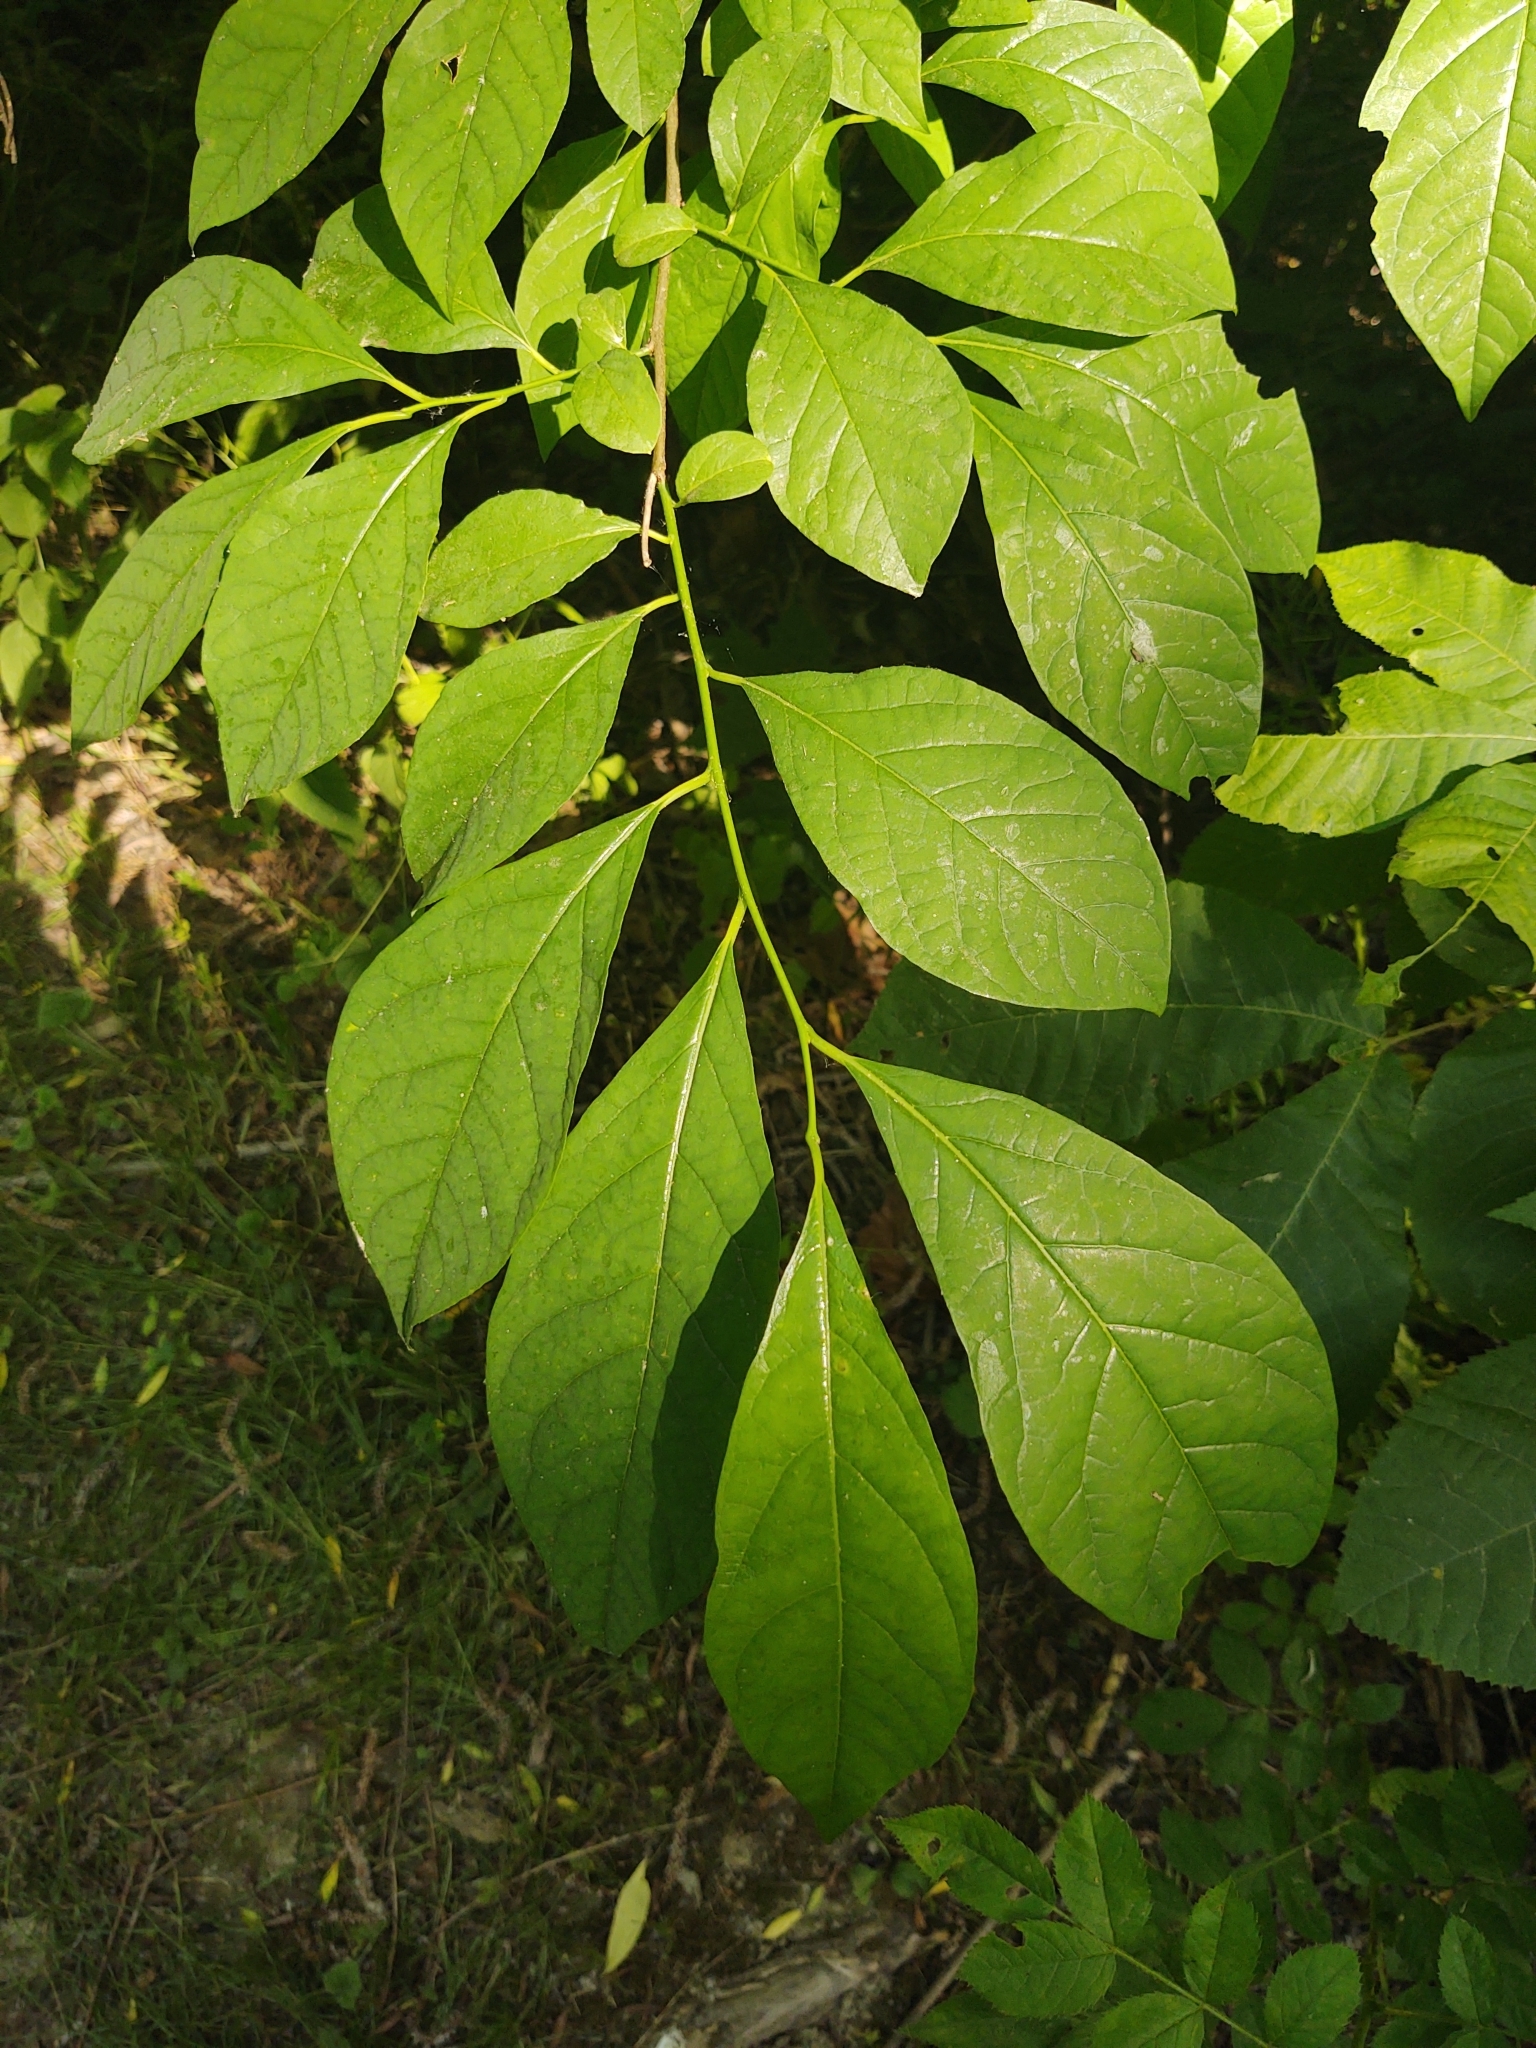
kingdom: Plantae
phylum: Tracheophyta
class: Magnoliopsida
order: Laurales
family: Lauraceae
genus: Lindera
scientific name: Lindera benzoin
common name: Spicebush
